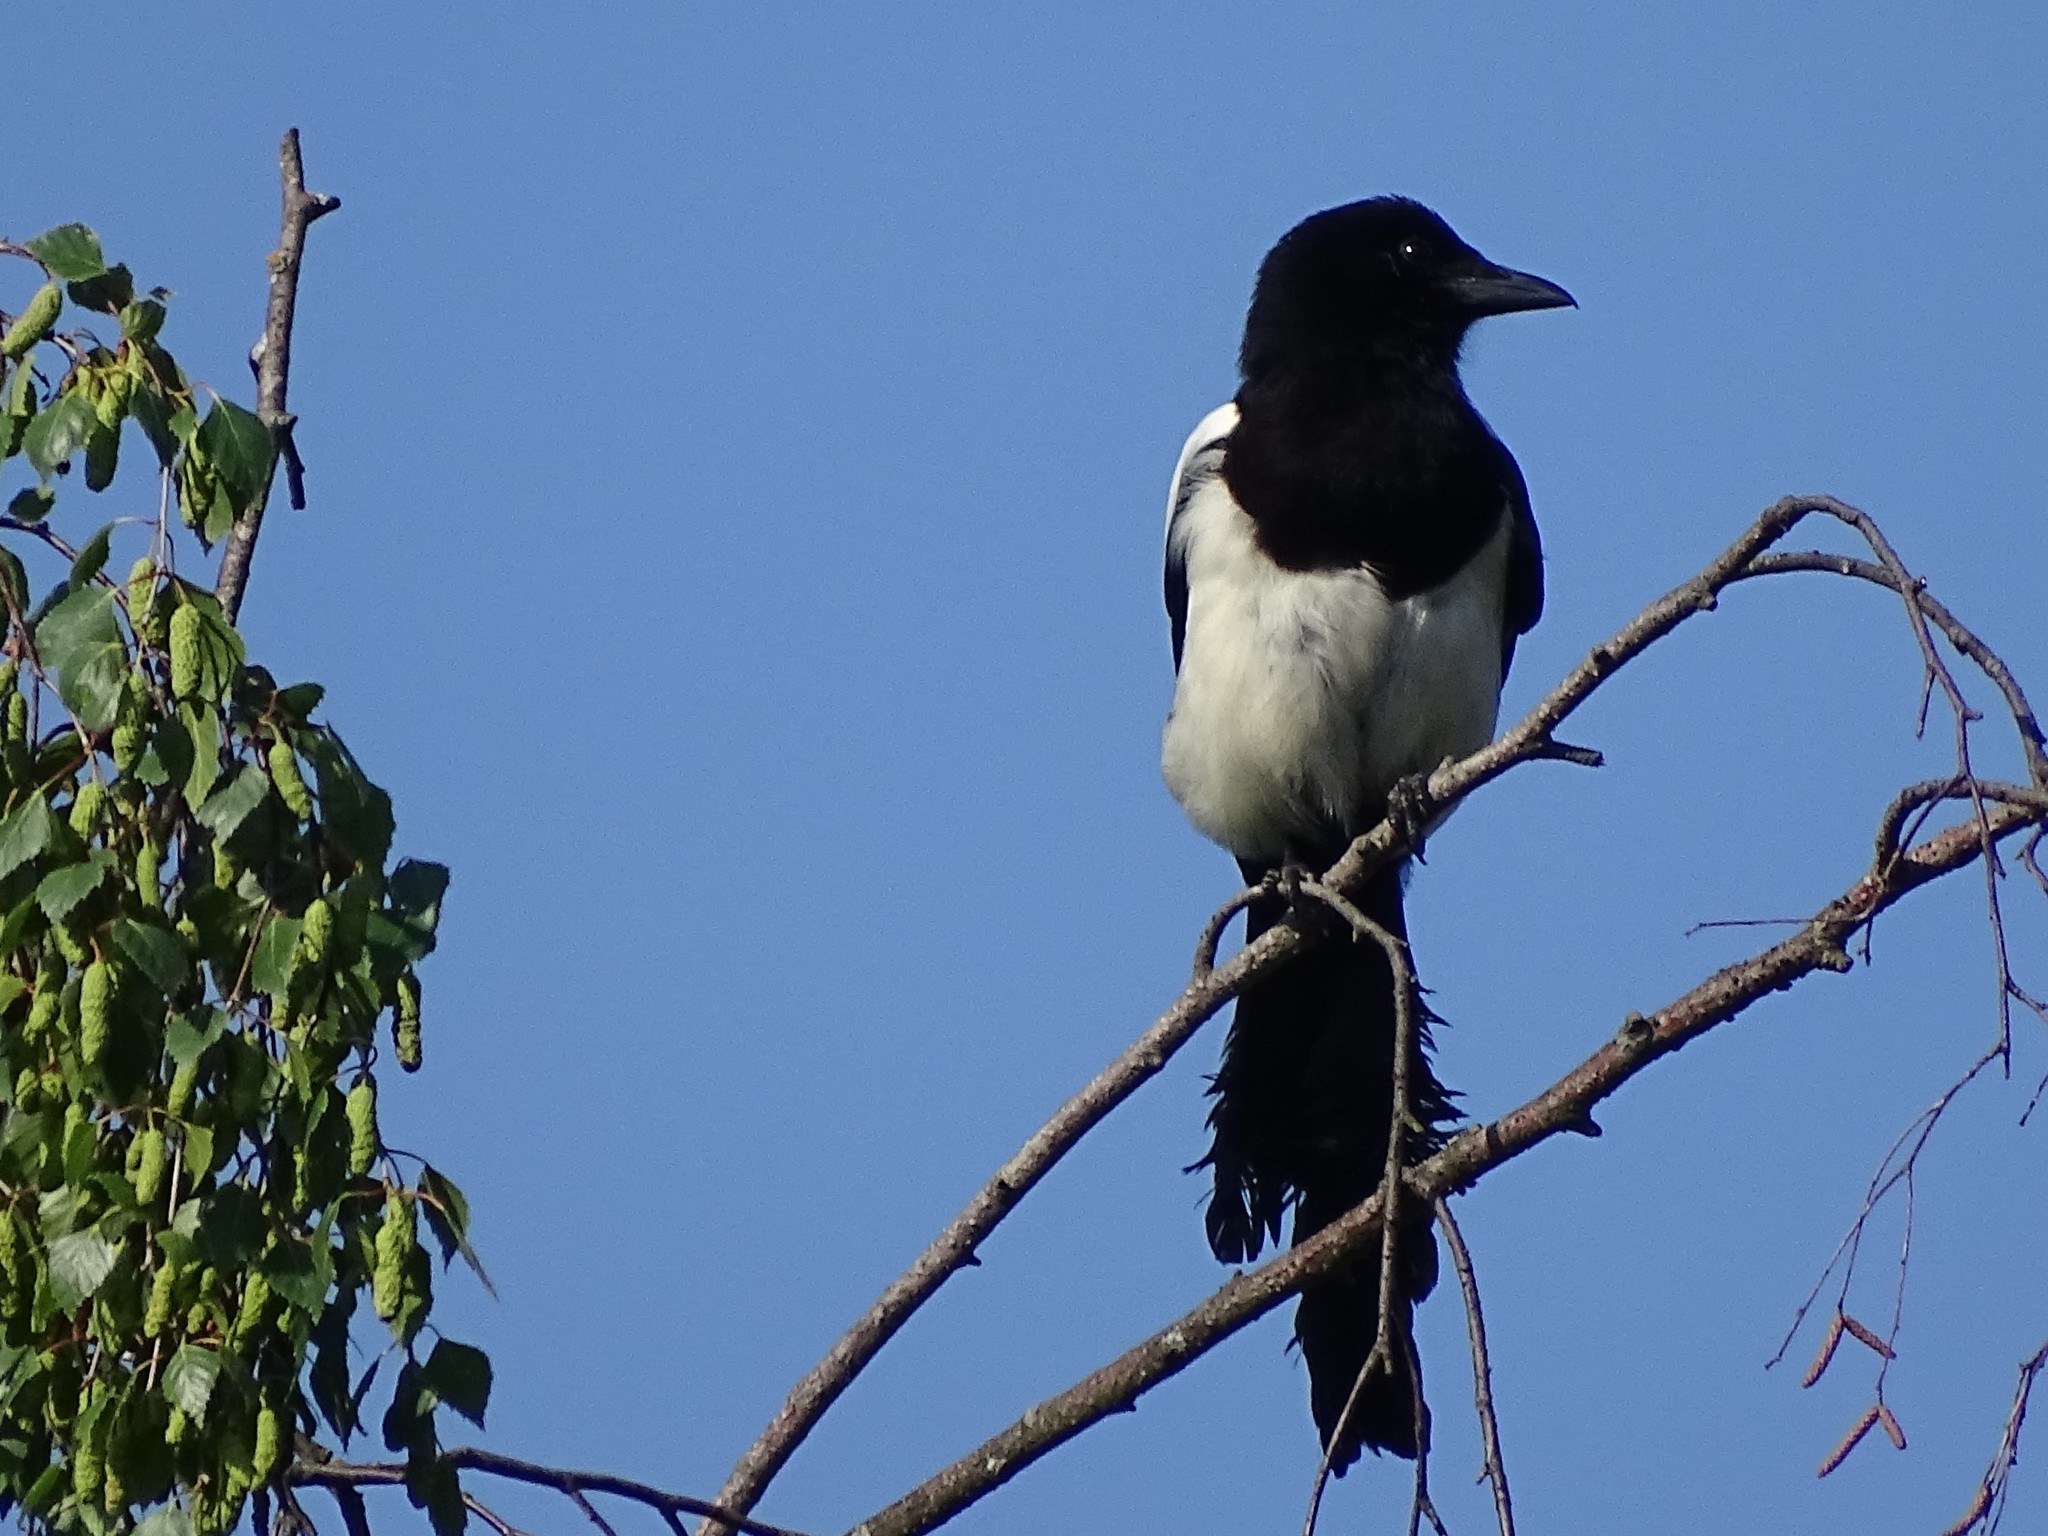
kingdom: Animalia
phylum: Chordata
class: Aves
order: Passeriformes
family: Corvidae
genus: Pica
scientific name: Pica pica
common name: Eurasian magpie
